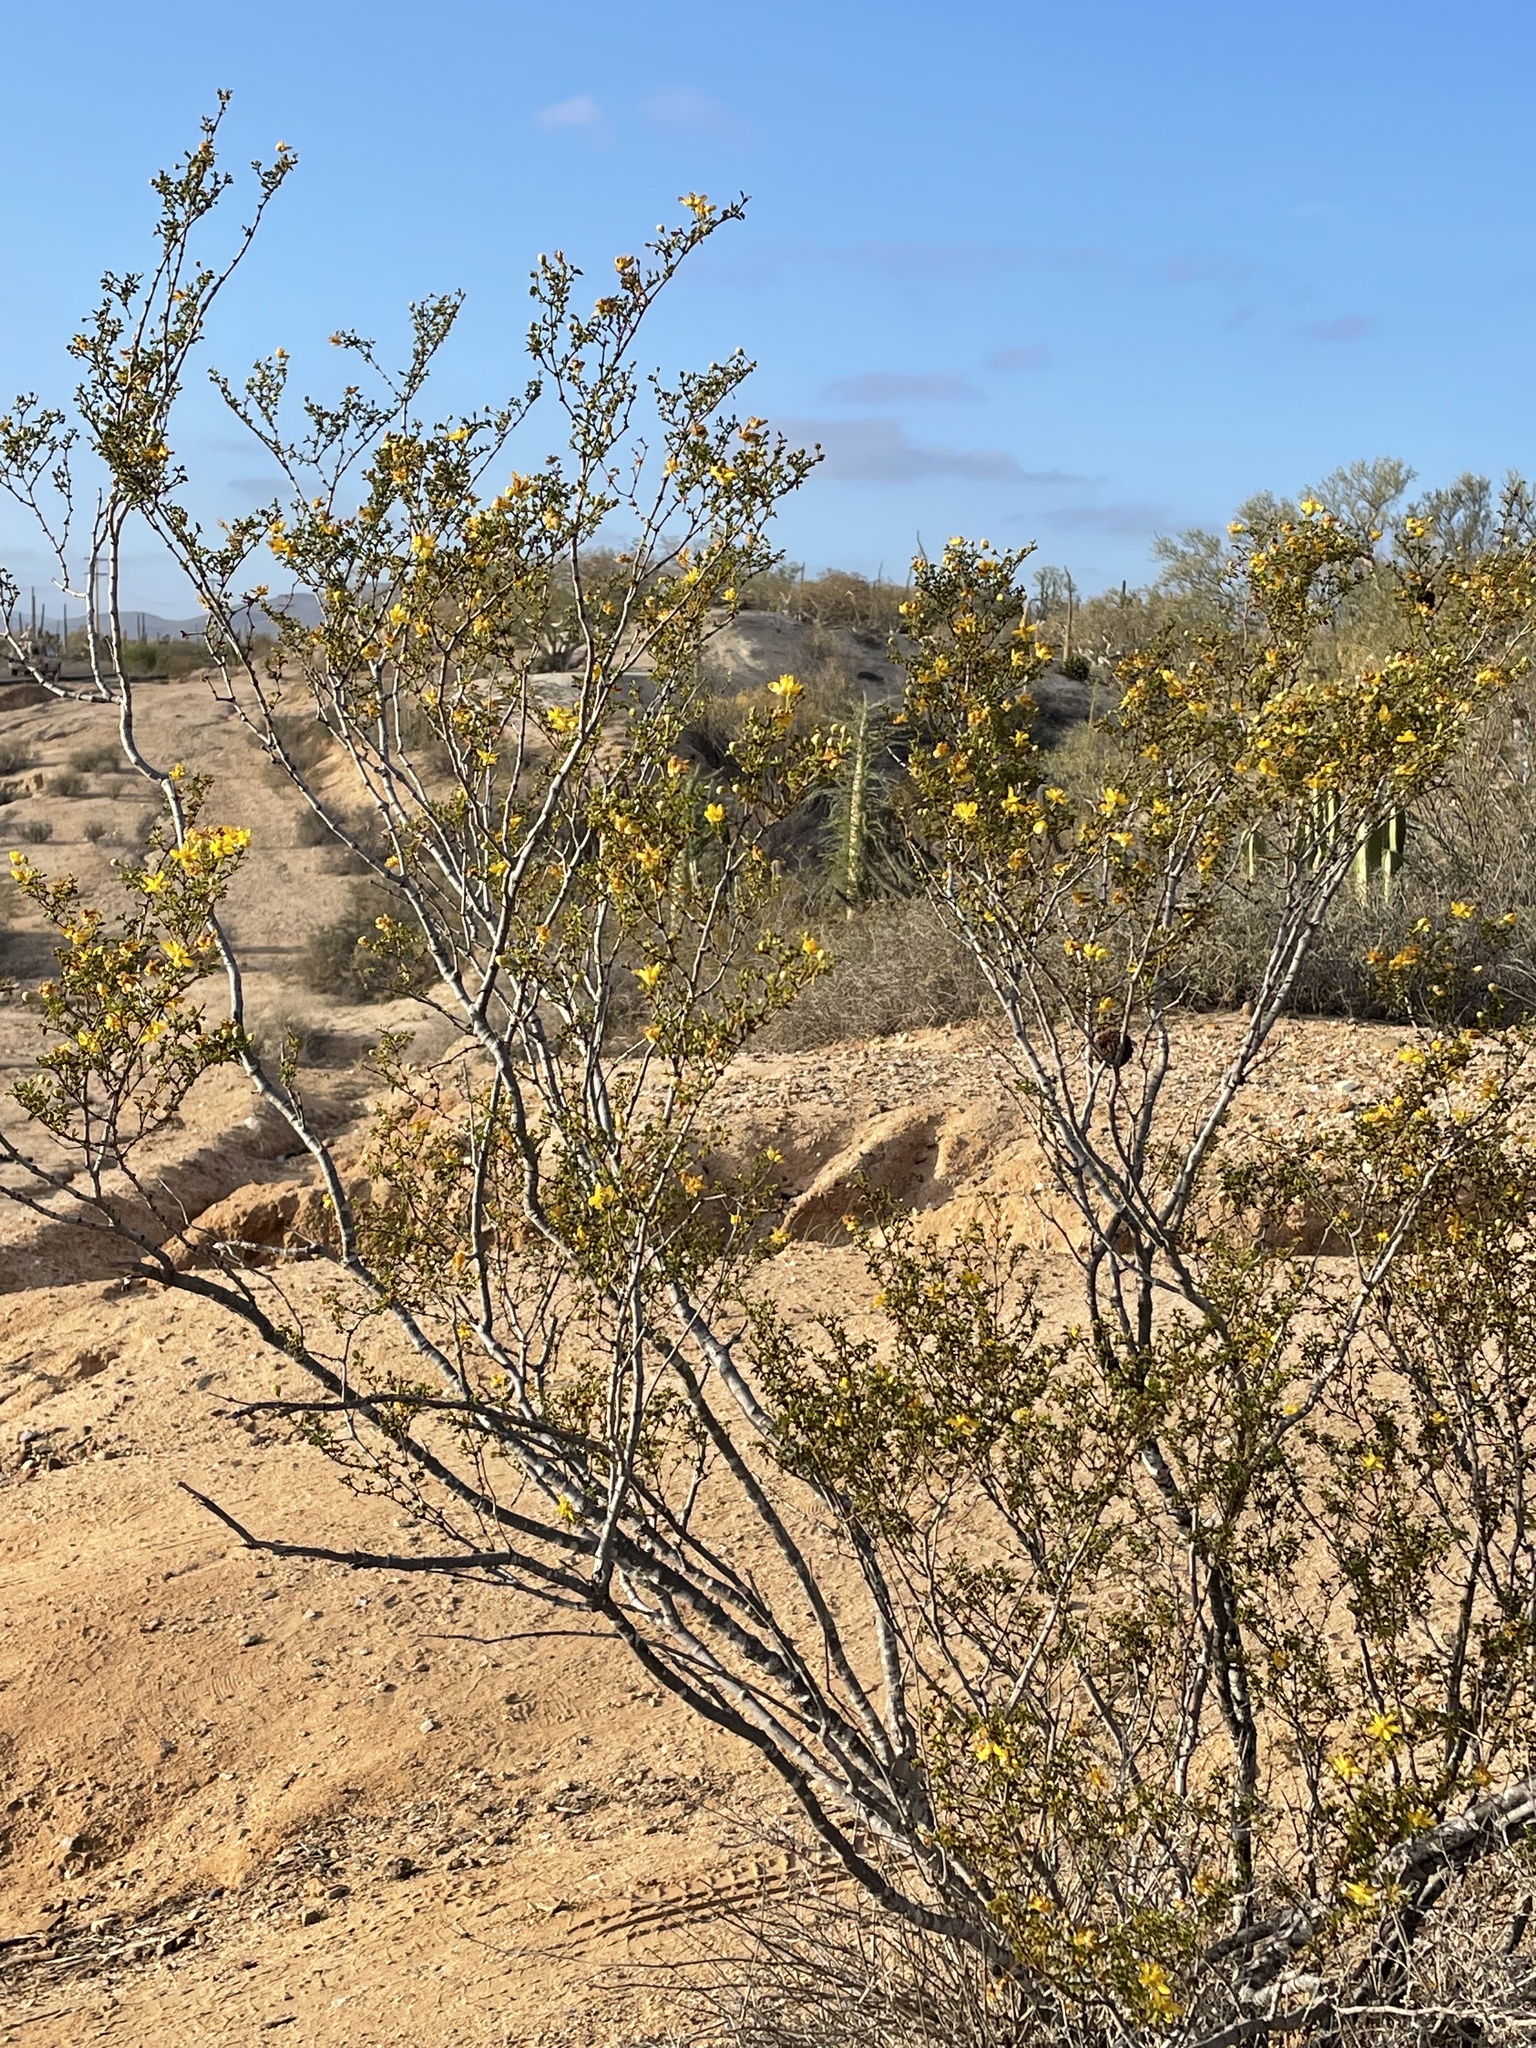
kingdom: Plantae
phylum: Tracheophyta
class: Magnoliopsida
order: Zygophyllales
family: Zygophyllaceae
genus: Larrea
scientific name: Larrea tridentata
